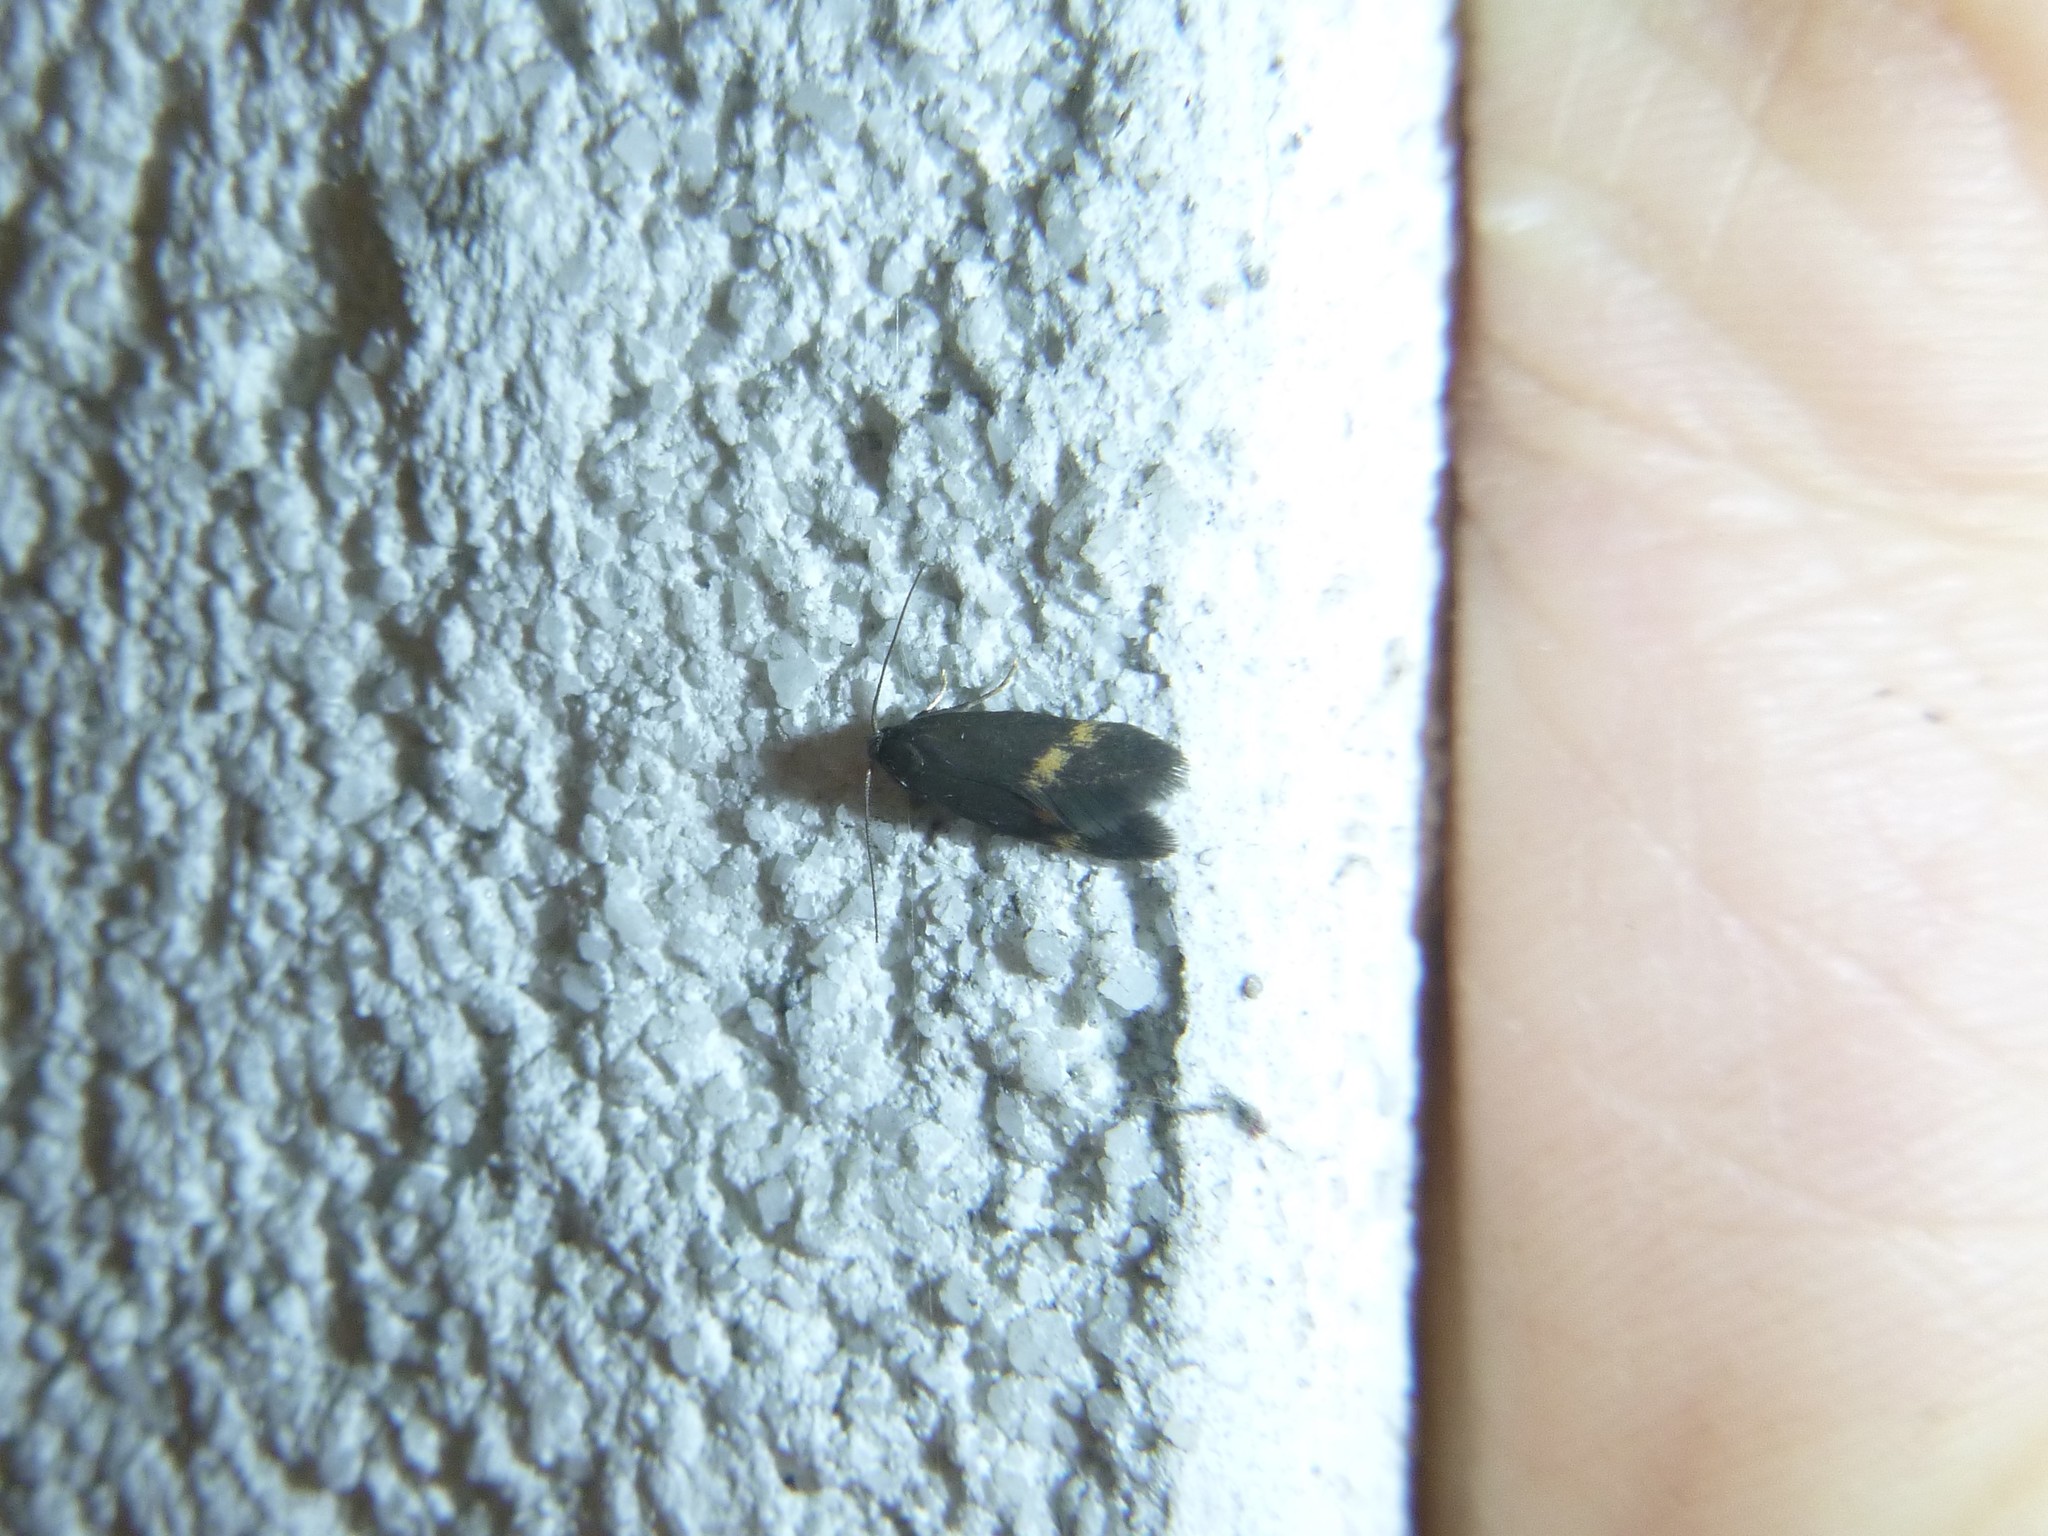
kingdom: Animalia
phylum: Arthropoda
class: Insecta
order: Lepidoptera
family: Oecophoridae
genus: Borkhausenia
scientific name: Borkhausenia minutella
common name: Thatch tubic
